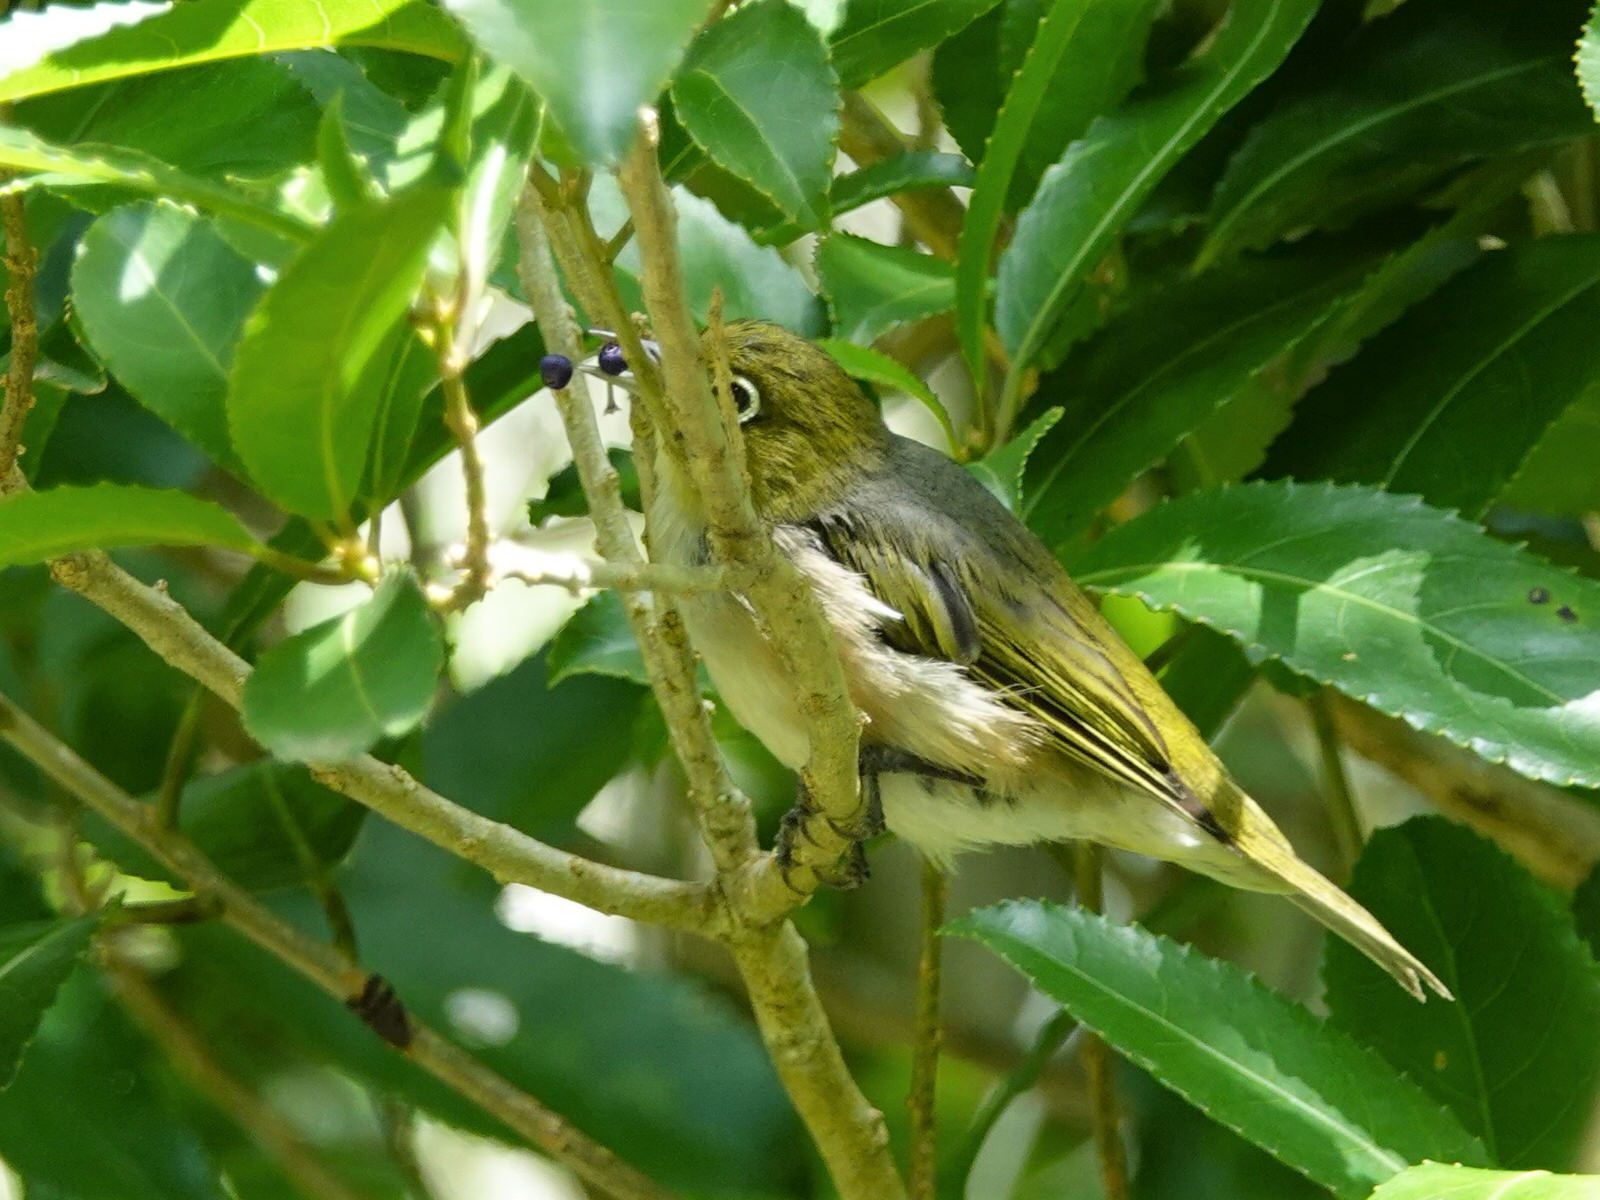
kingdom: Animalia
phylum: Chordata
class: Aves
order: Passeriformes
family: Zosteropidae
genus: Zosterops
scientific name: Zosterops lateralis
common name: Silvereye
